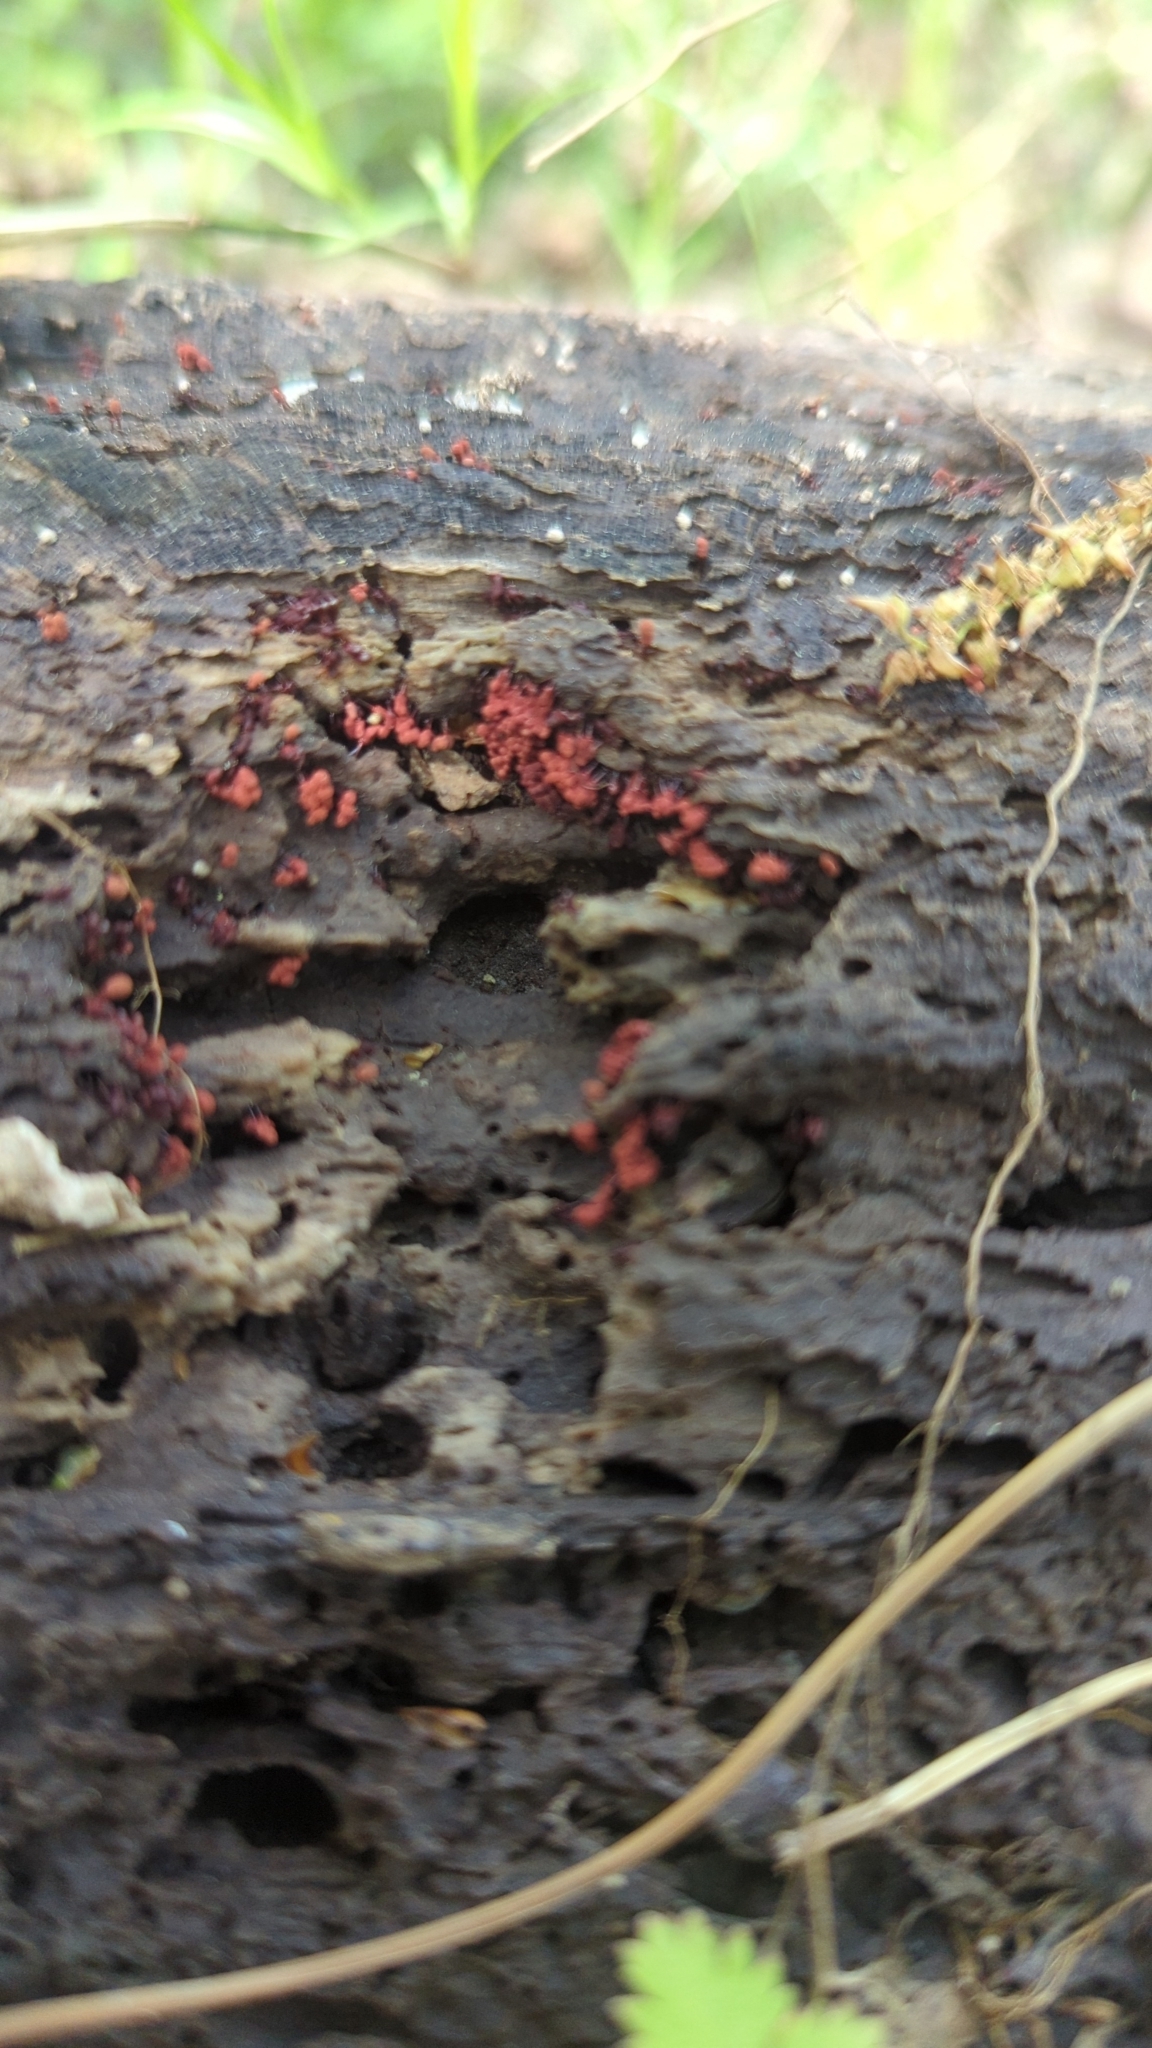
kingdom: Protozoa
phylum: Mycetozoa
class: Myxomycetes
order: Trichiales
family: Arcyriaceae
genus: Arcyria
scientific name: Arcyria denudata
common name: Carnival candy slime mold
